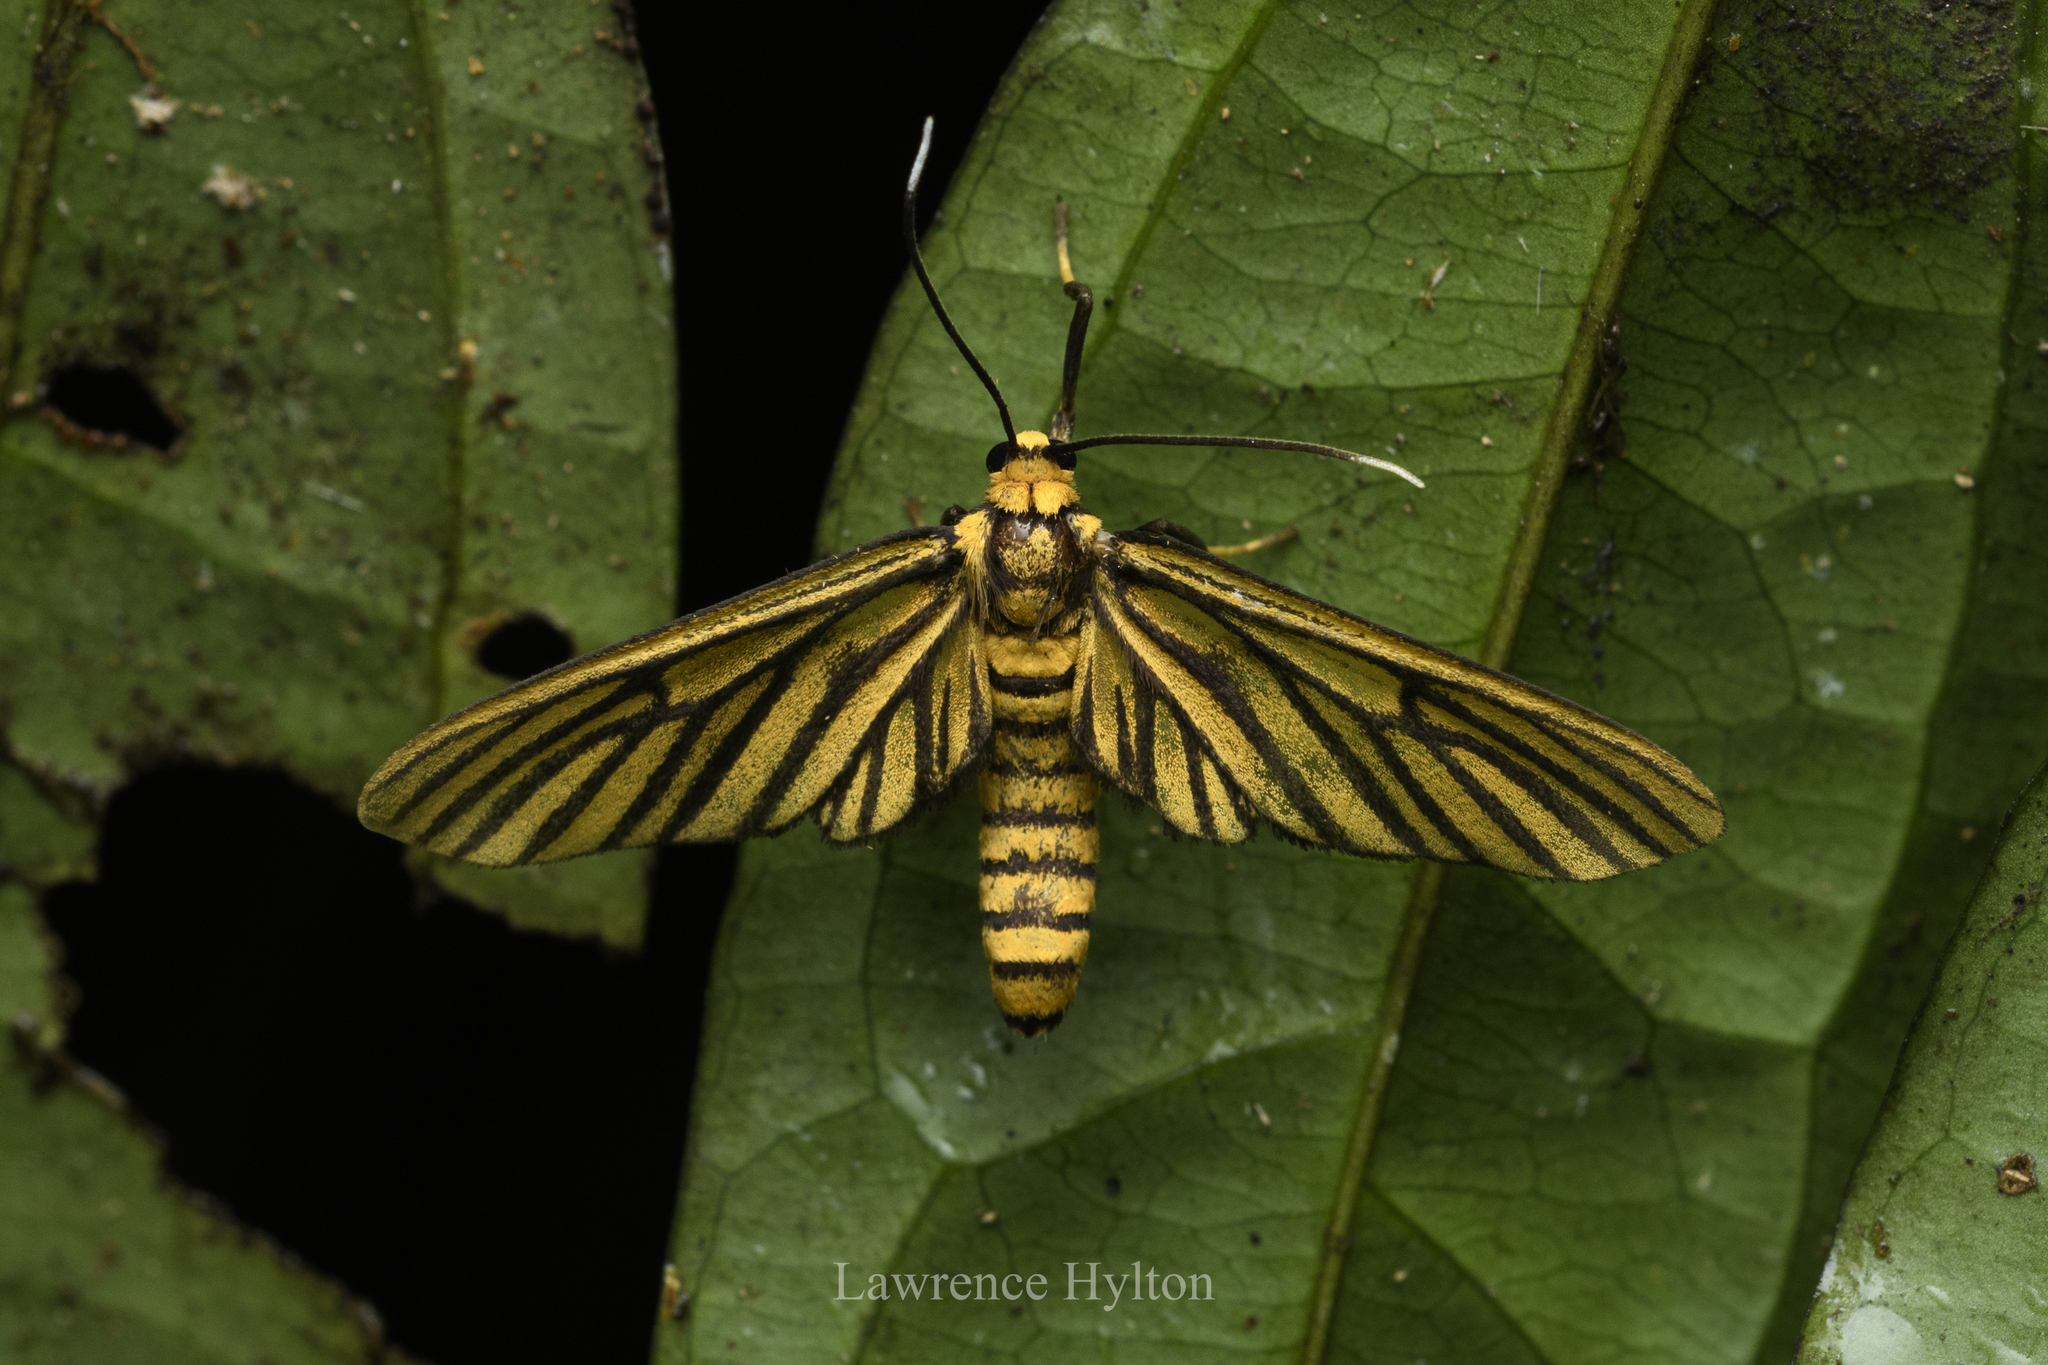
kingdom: Animalia
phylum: Arthropoda
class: Insecta
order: Lepidoptera
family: Erebidae
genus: Amata
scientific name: Amata tigrina
